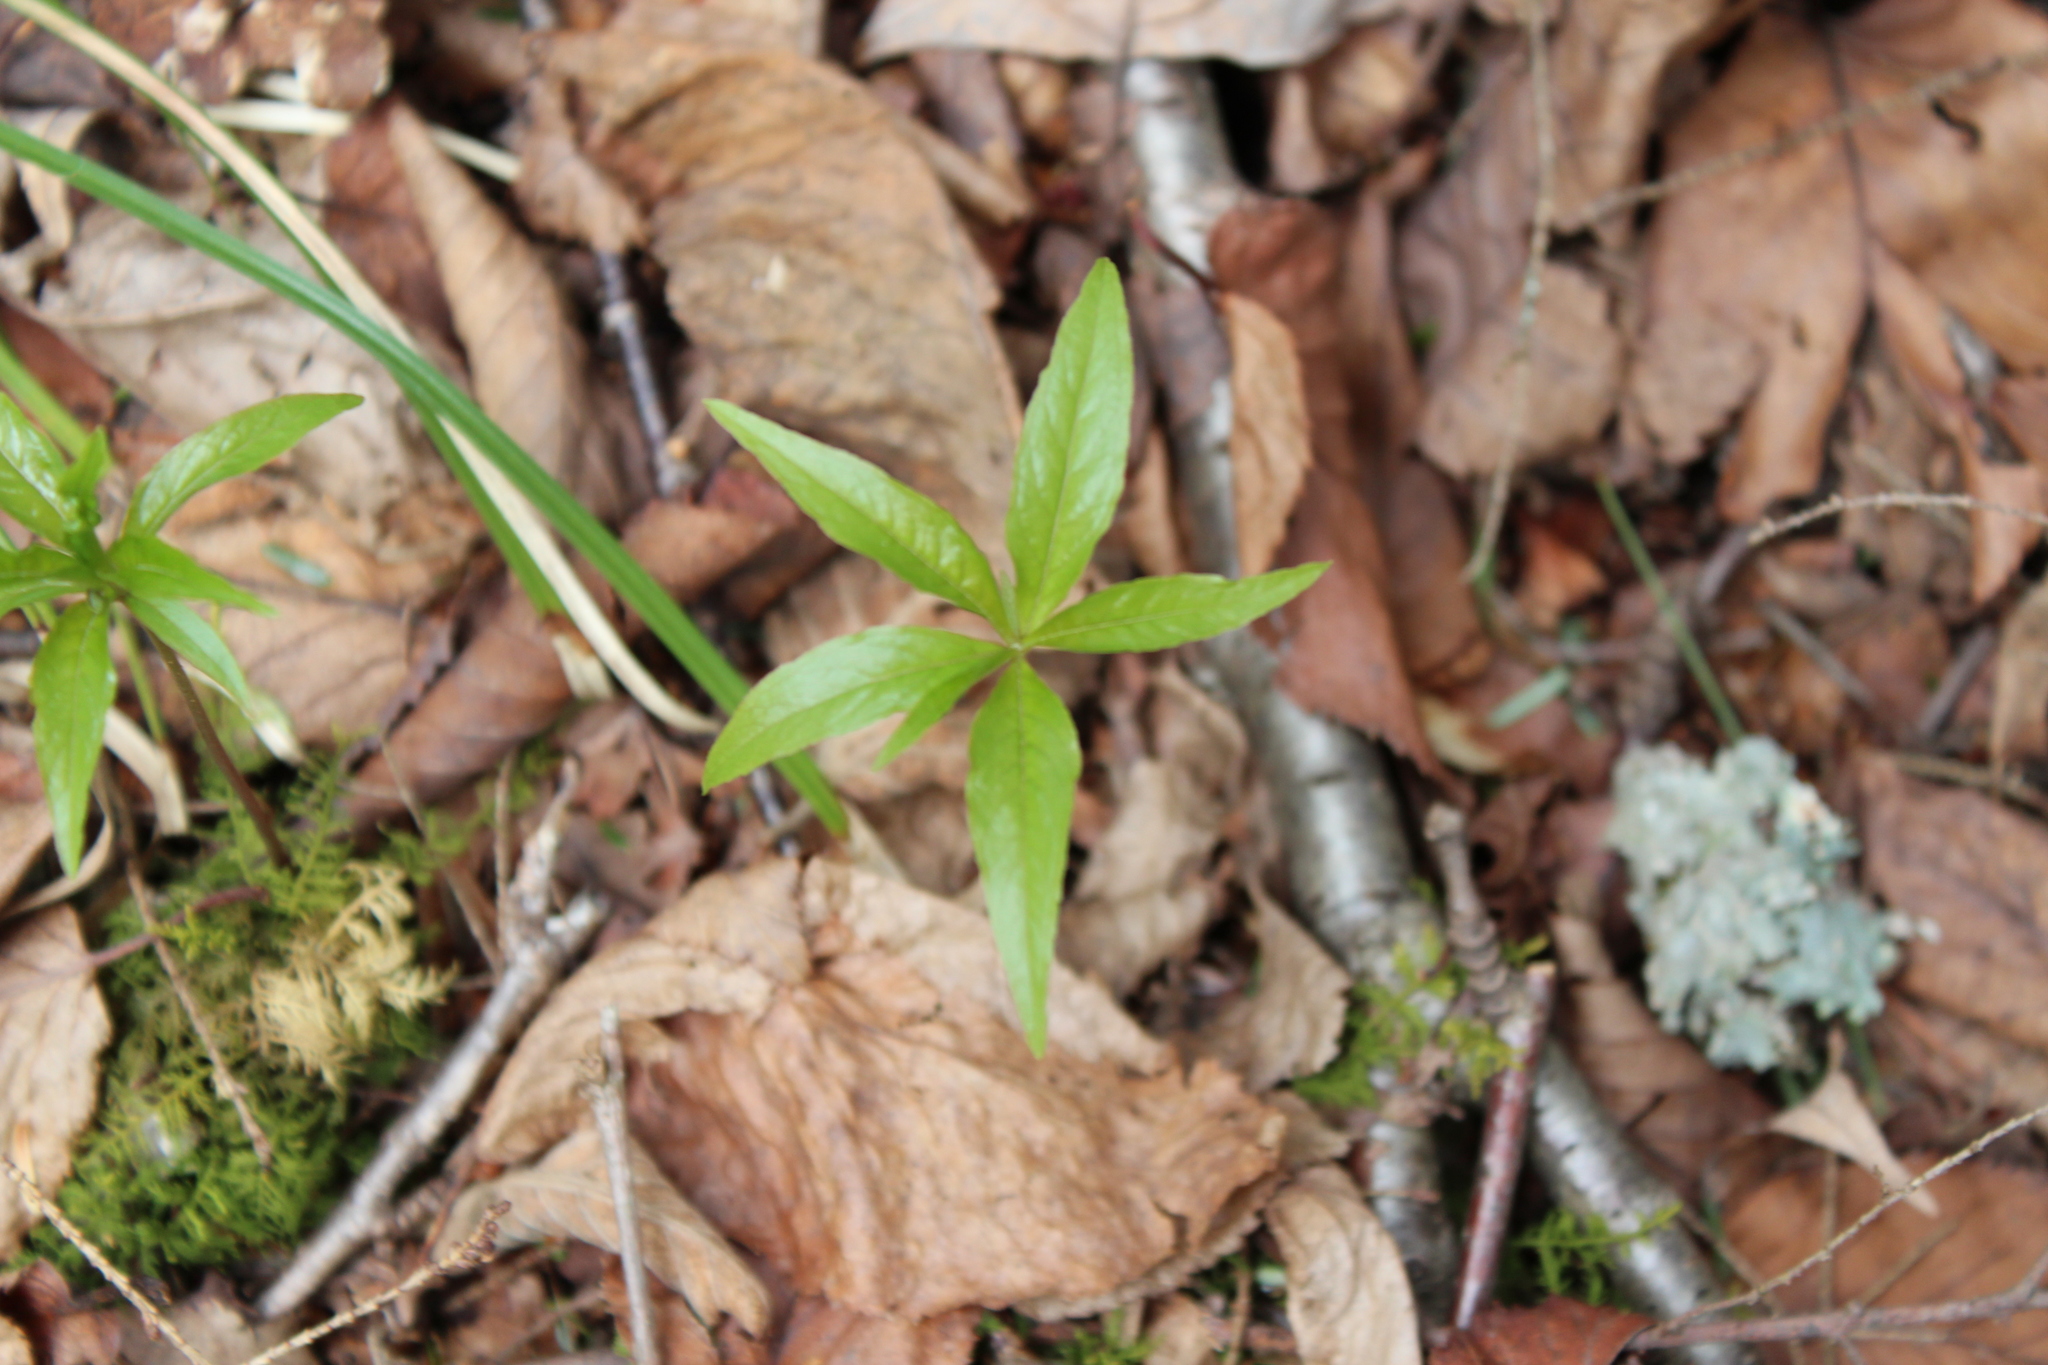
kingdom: Plantae
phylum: Tracheophyta
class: Magnoliopsida
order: Ericales
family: Primulaceae
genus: Lysimachia
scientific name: Lysimachia borealis
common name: American starflower
